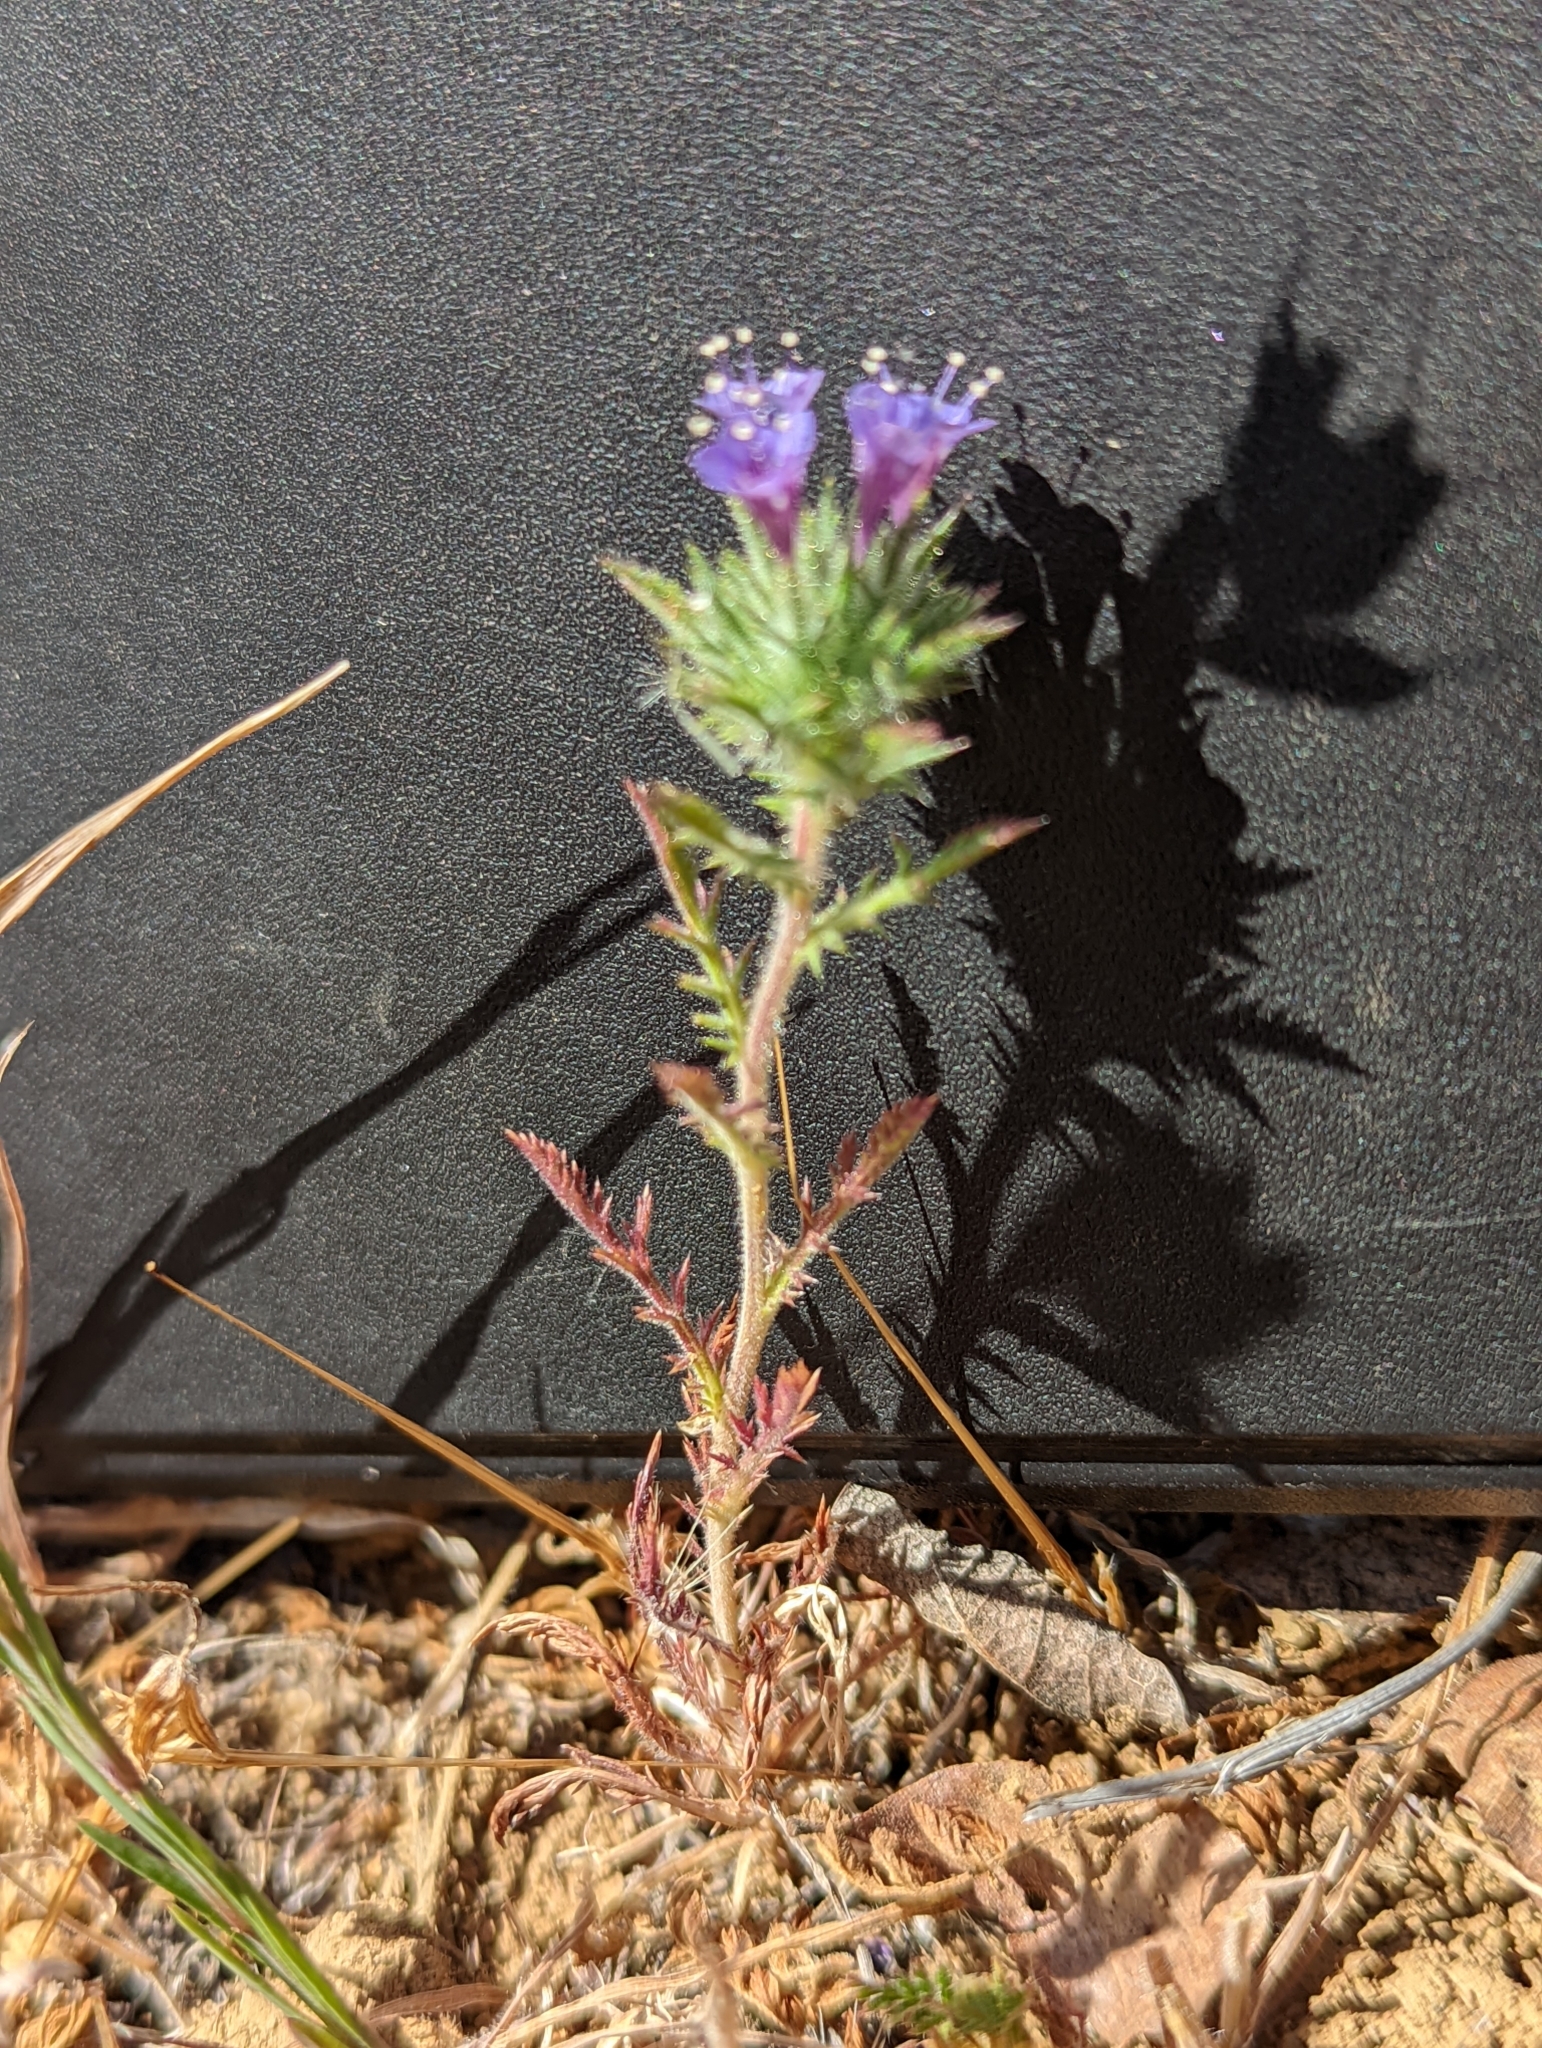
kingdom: Plantae
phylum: Tracheophyta
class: Magnoliopsida
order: Ericales
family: Polemoniaceae
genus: Navarretia
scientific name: Navarretia pubescens
